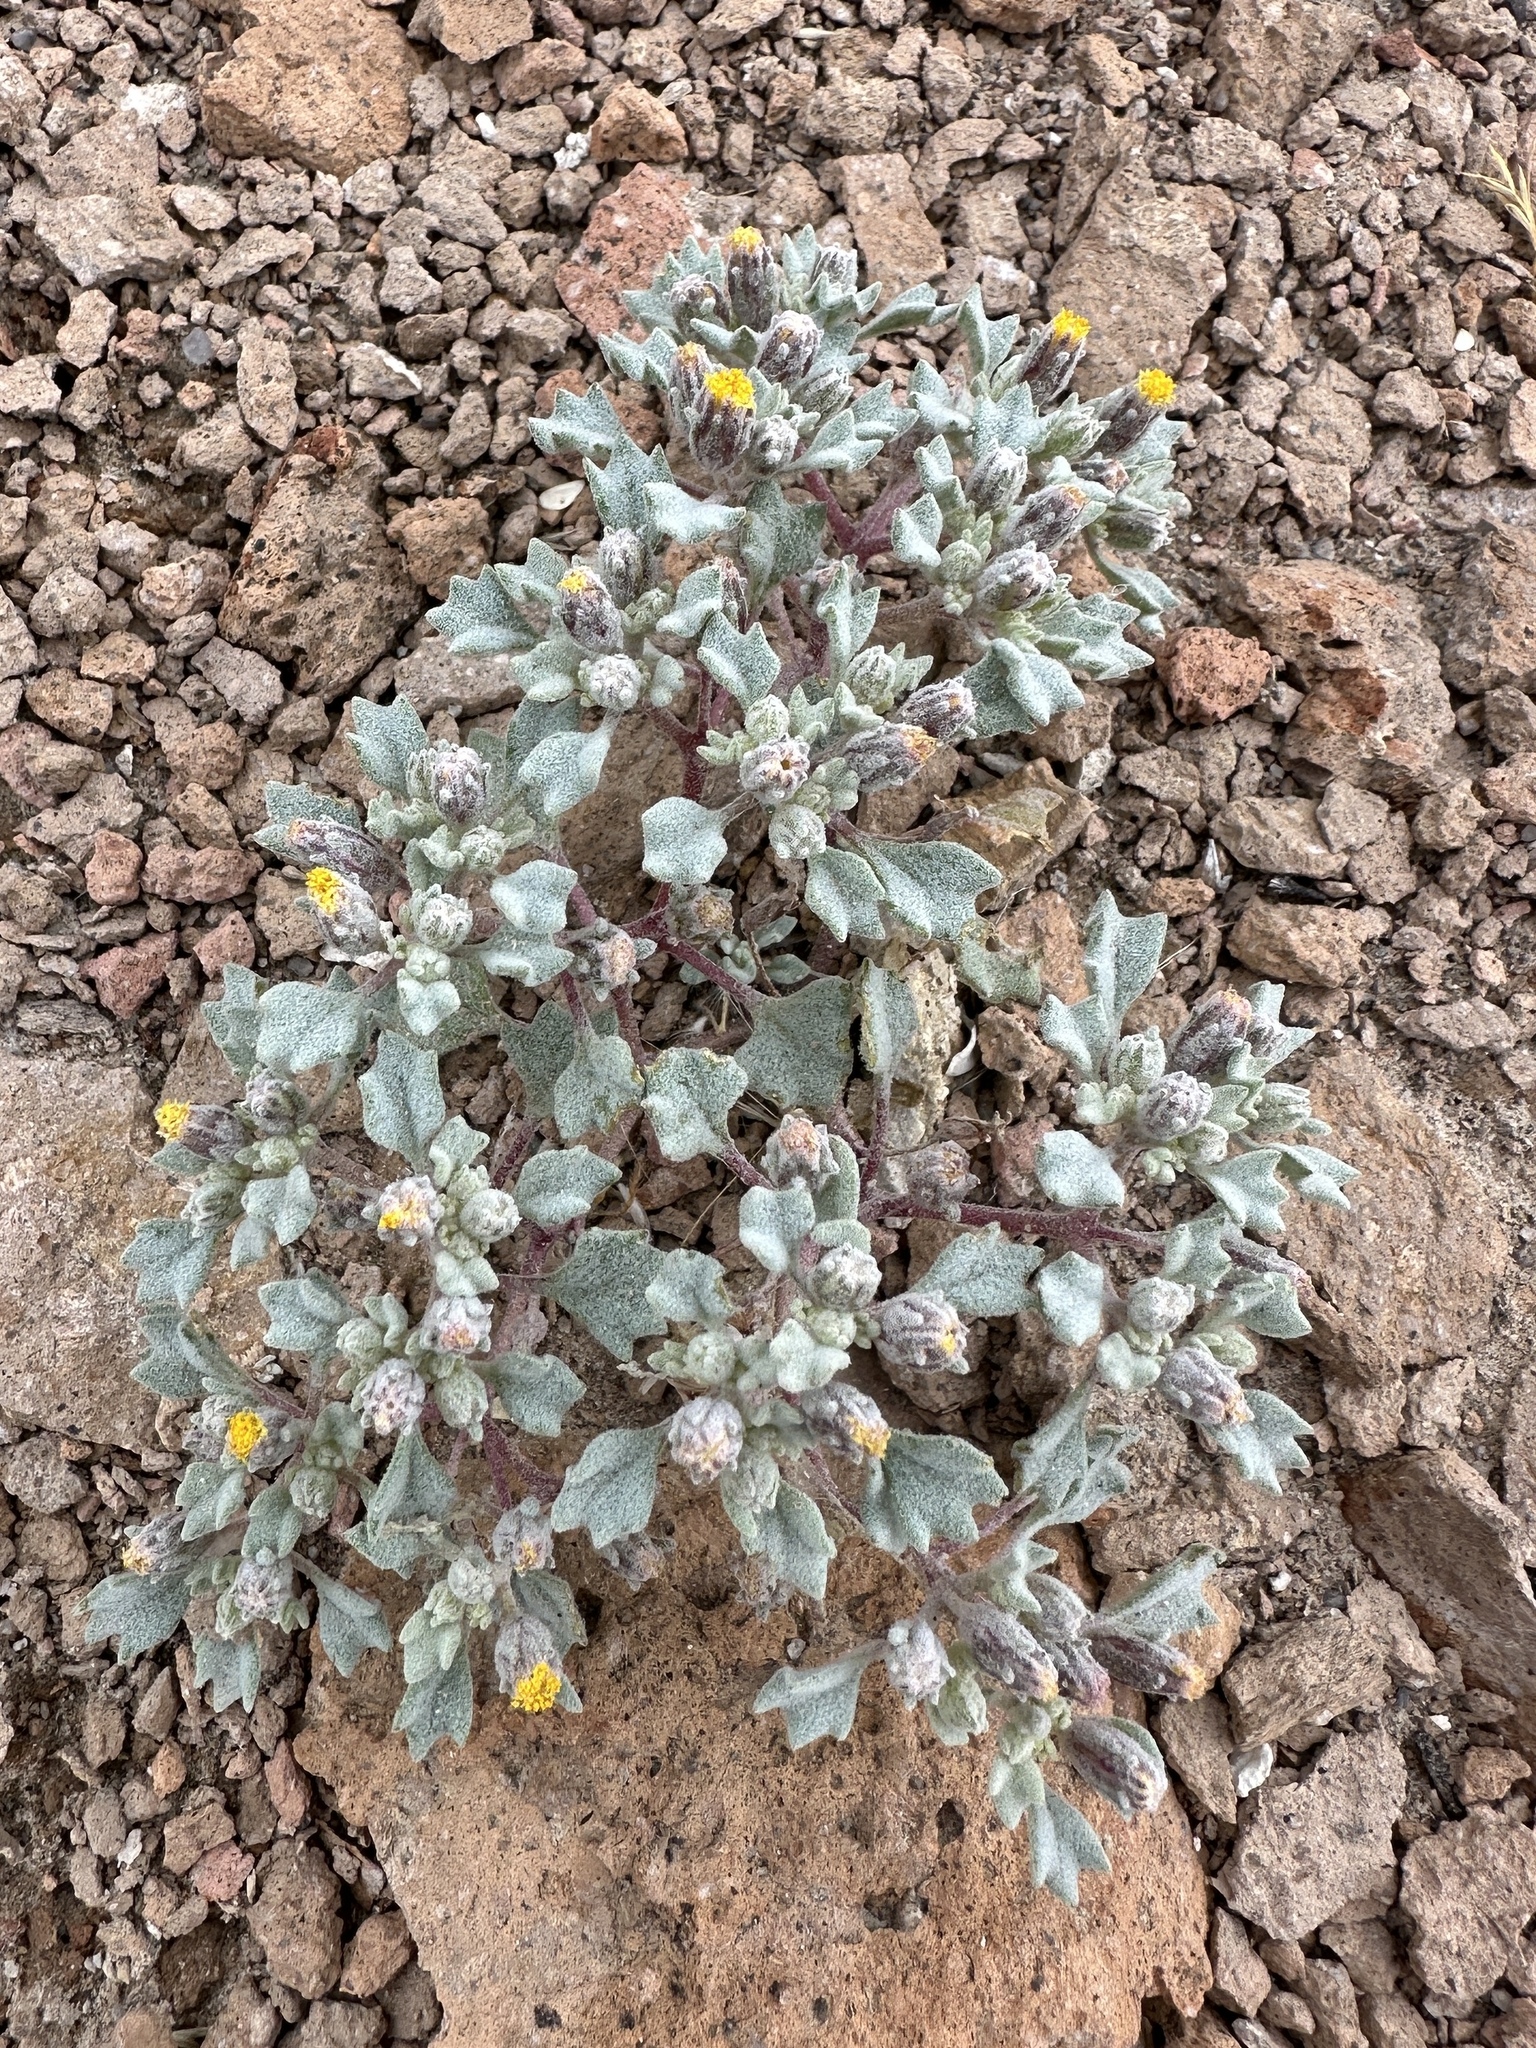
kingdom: Plantae
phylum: Tracheophyta
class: Magnoliopsida
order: Asterales
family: Asteraceae
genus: Psathyrotes
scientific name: Psathyrotes annua
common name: Mealy rosettes
